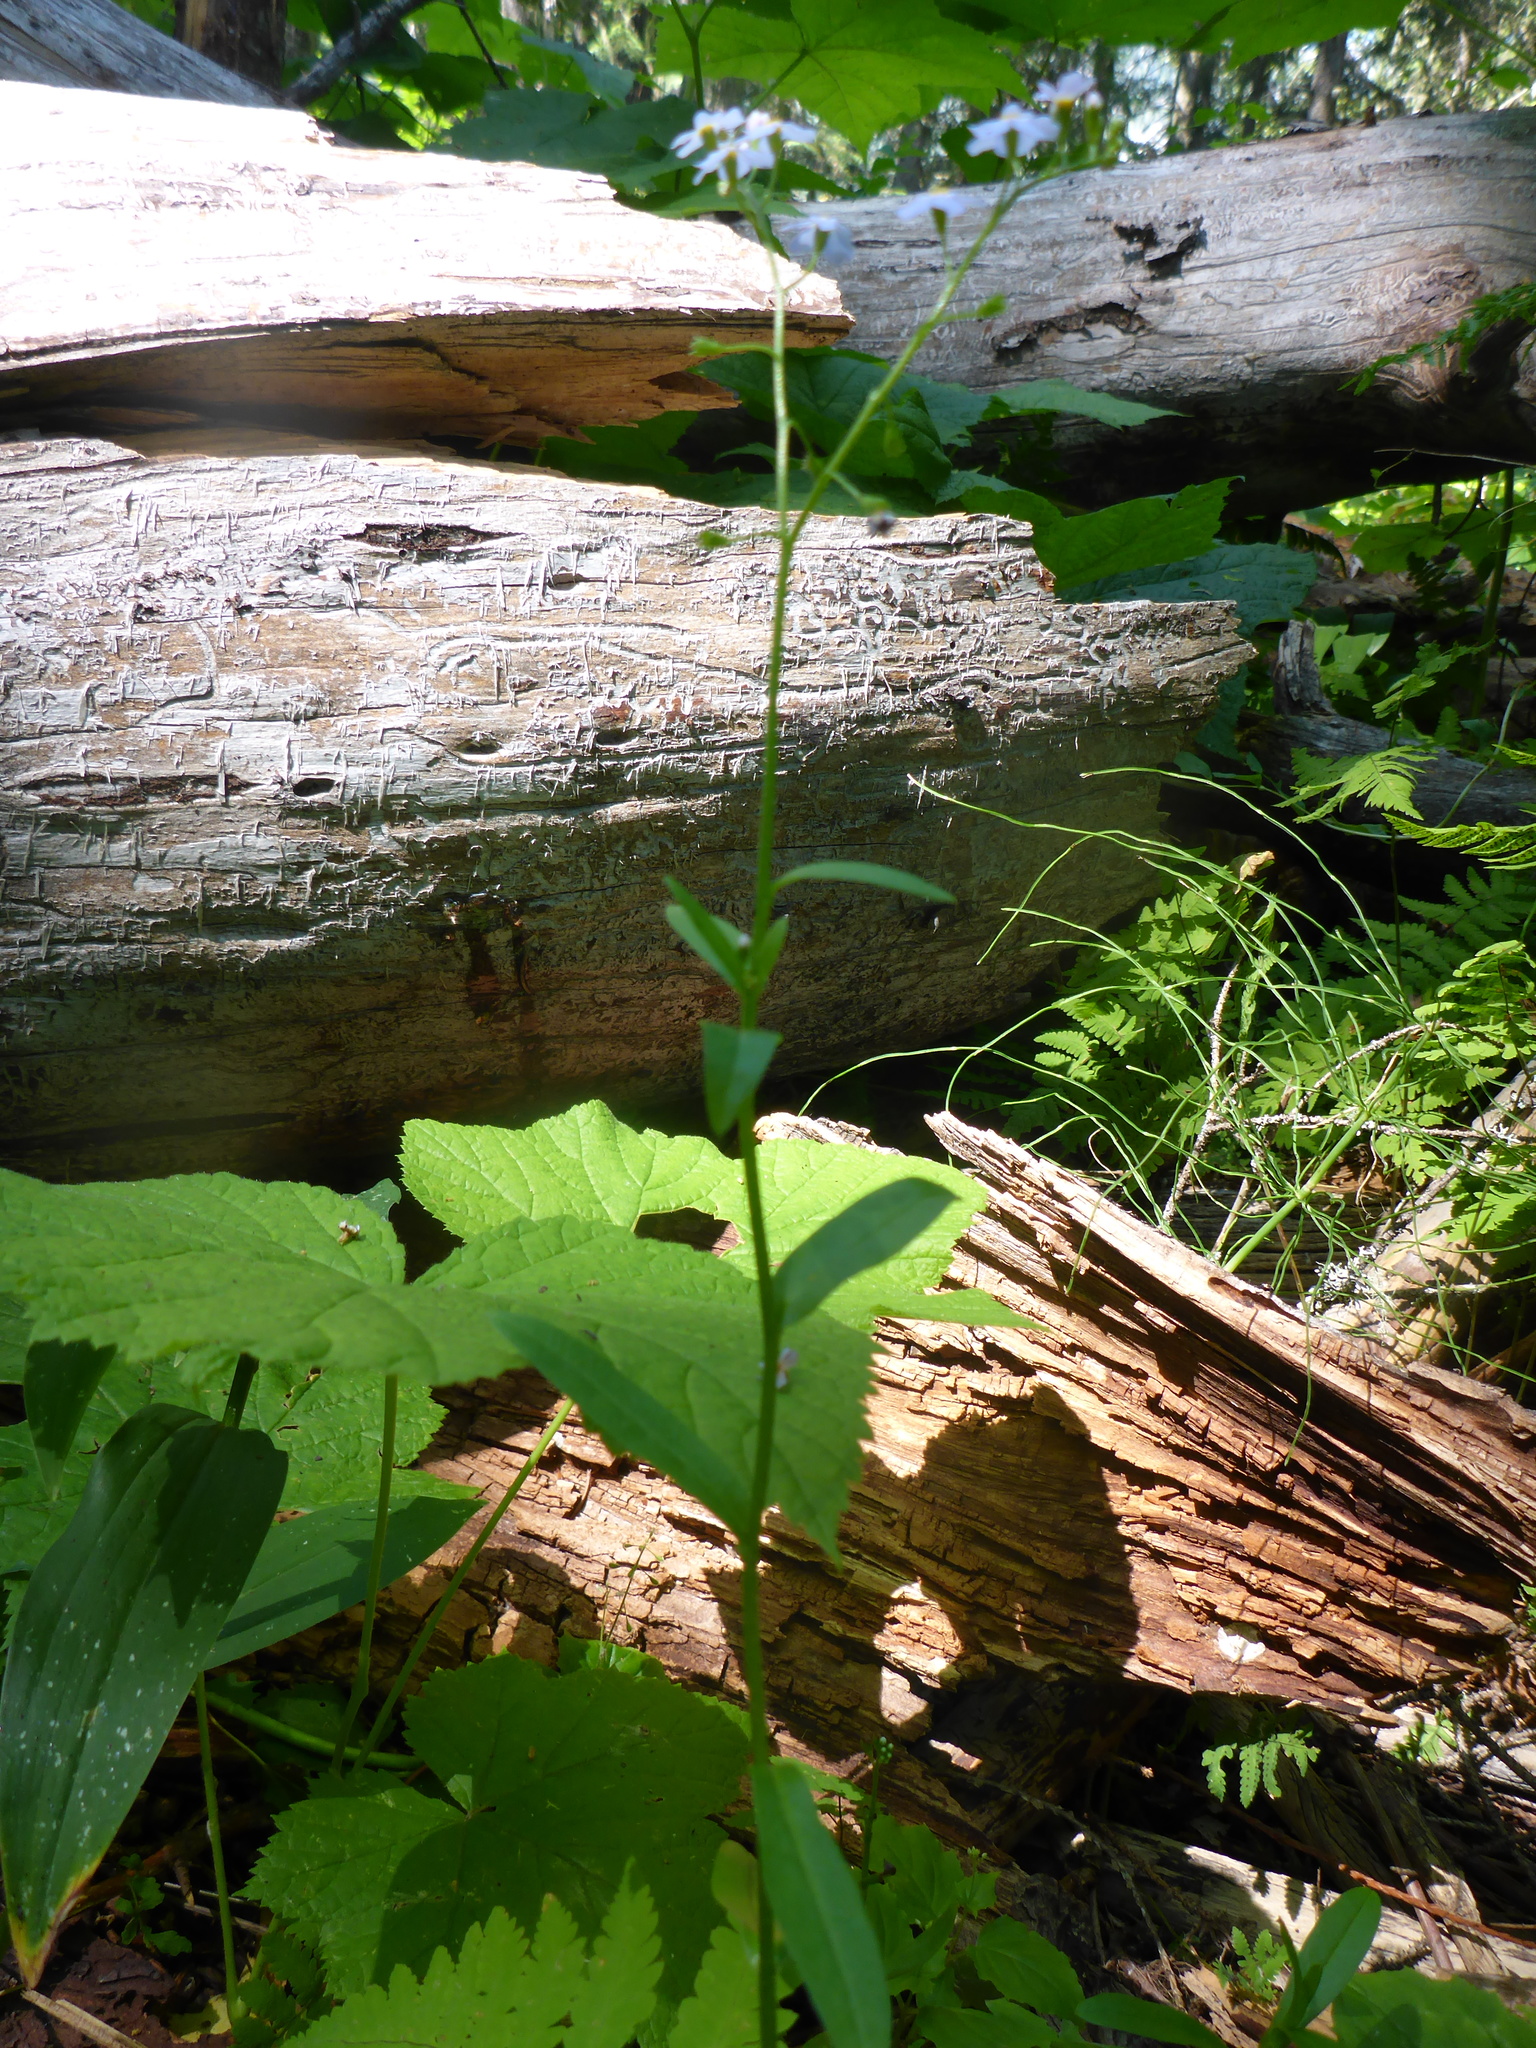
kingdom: Plantae
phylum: Tracheophyta
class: Magnoliopsida
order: Boraginales
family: Boraginaceae
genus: Myosotis
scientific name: Myosotis scorpioides
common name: Water forget-me-not
